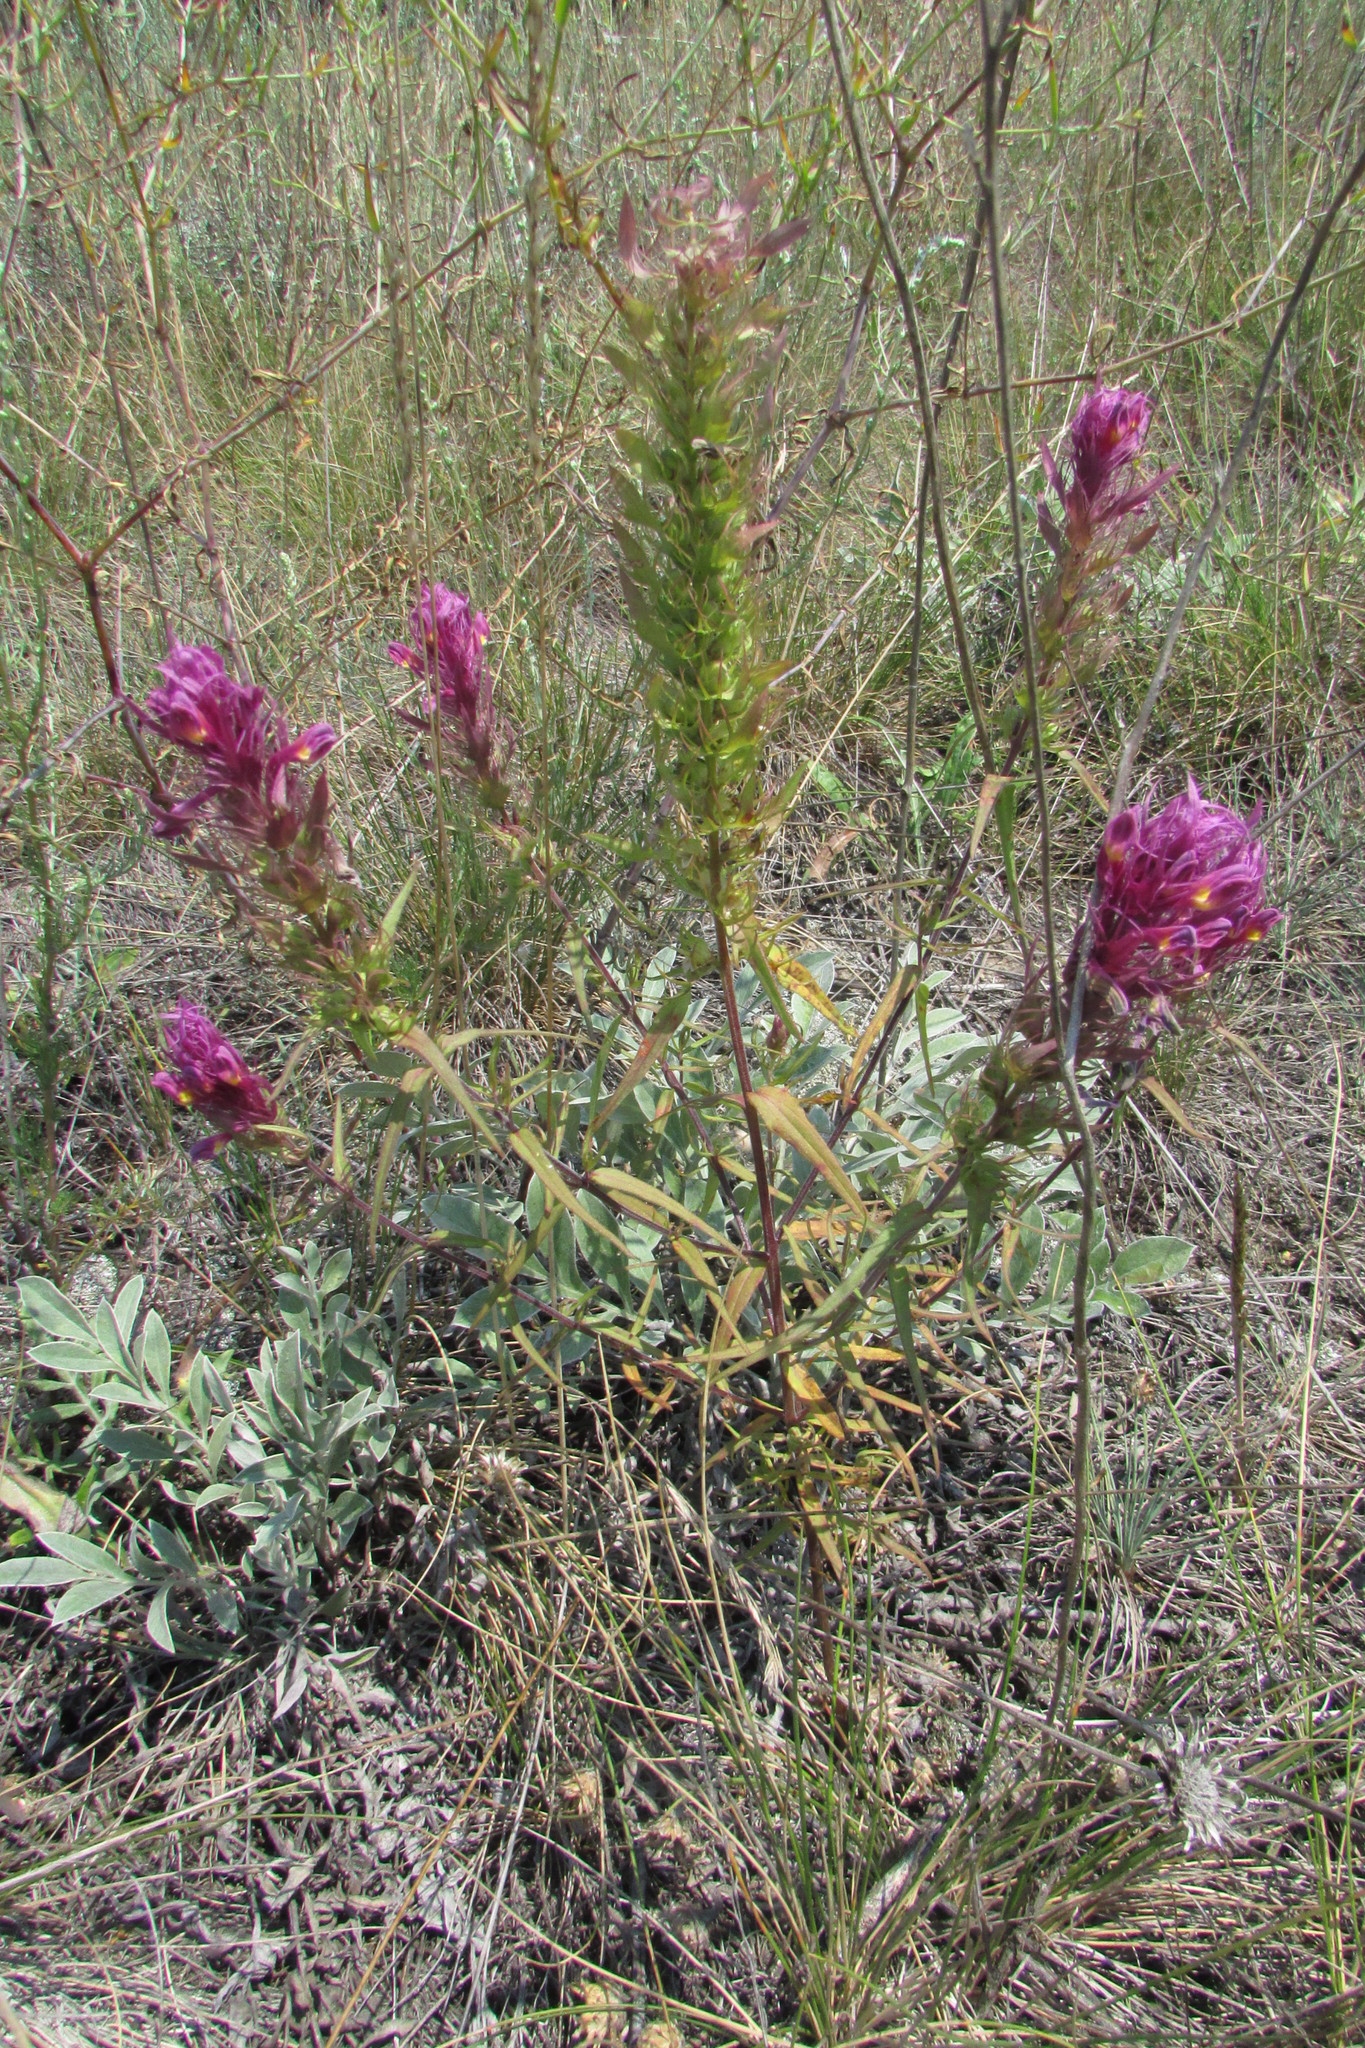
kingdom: Plantae
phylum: Tracheophyta
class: Magnoliopsida
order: Lamiales
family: Orobanchaceae
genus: Melampyrum
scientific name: Melampyrum arvense
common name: Field cow-wheat
